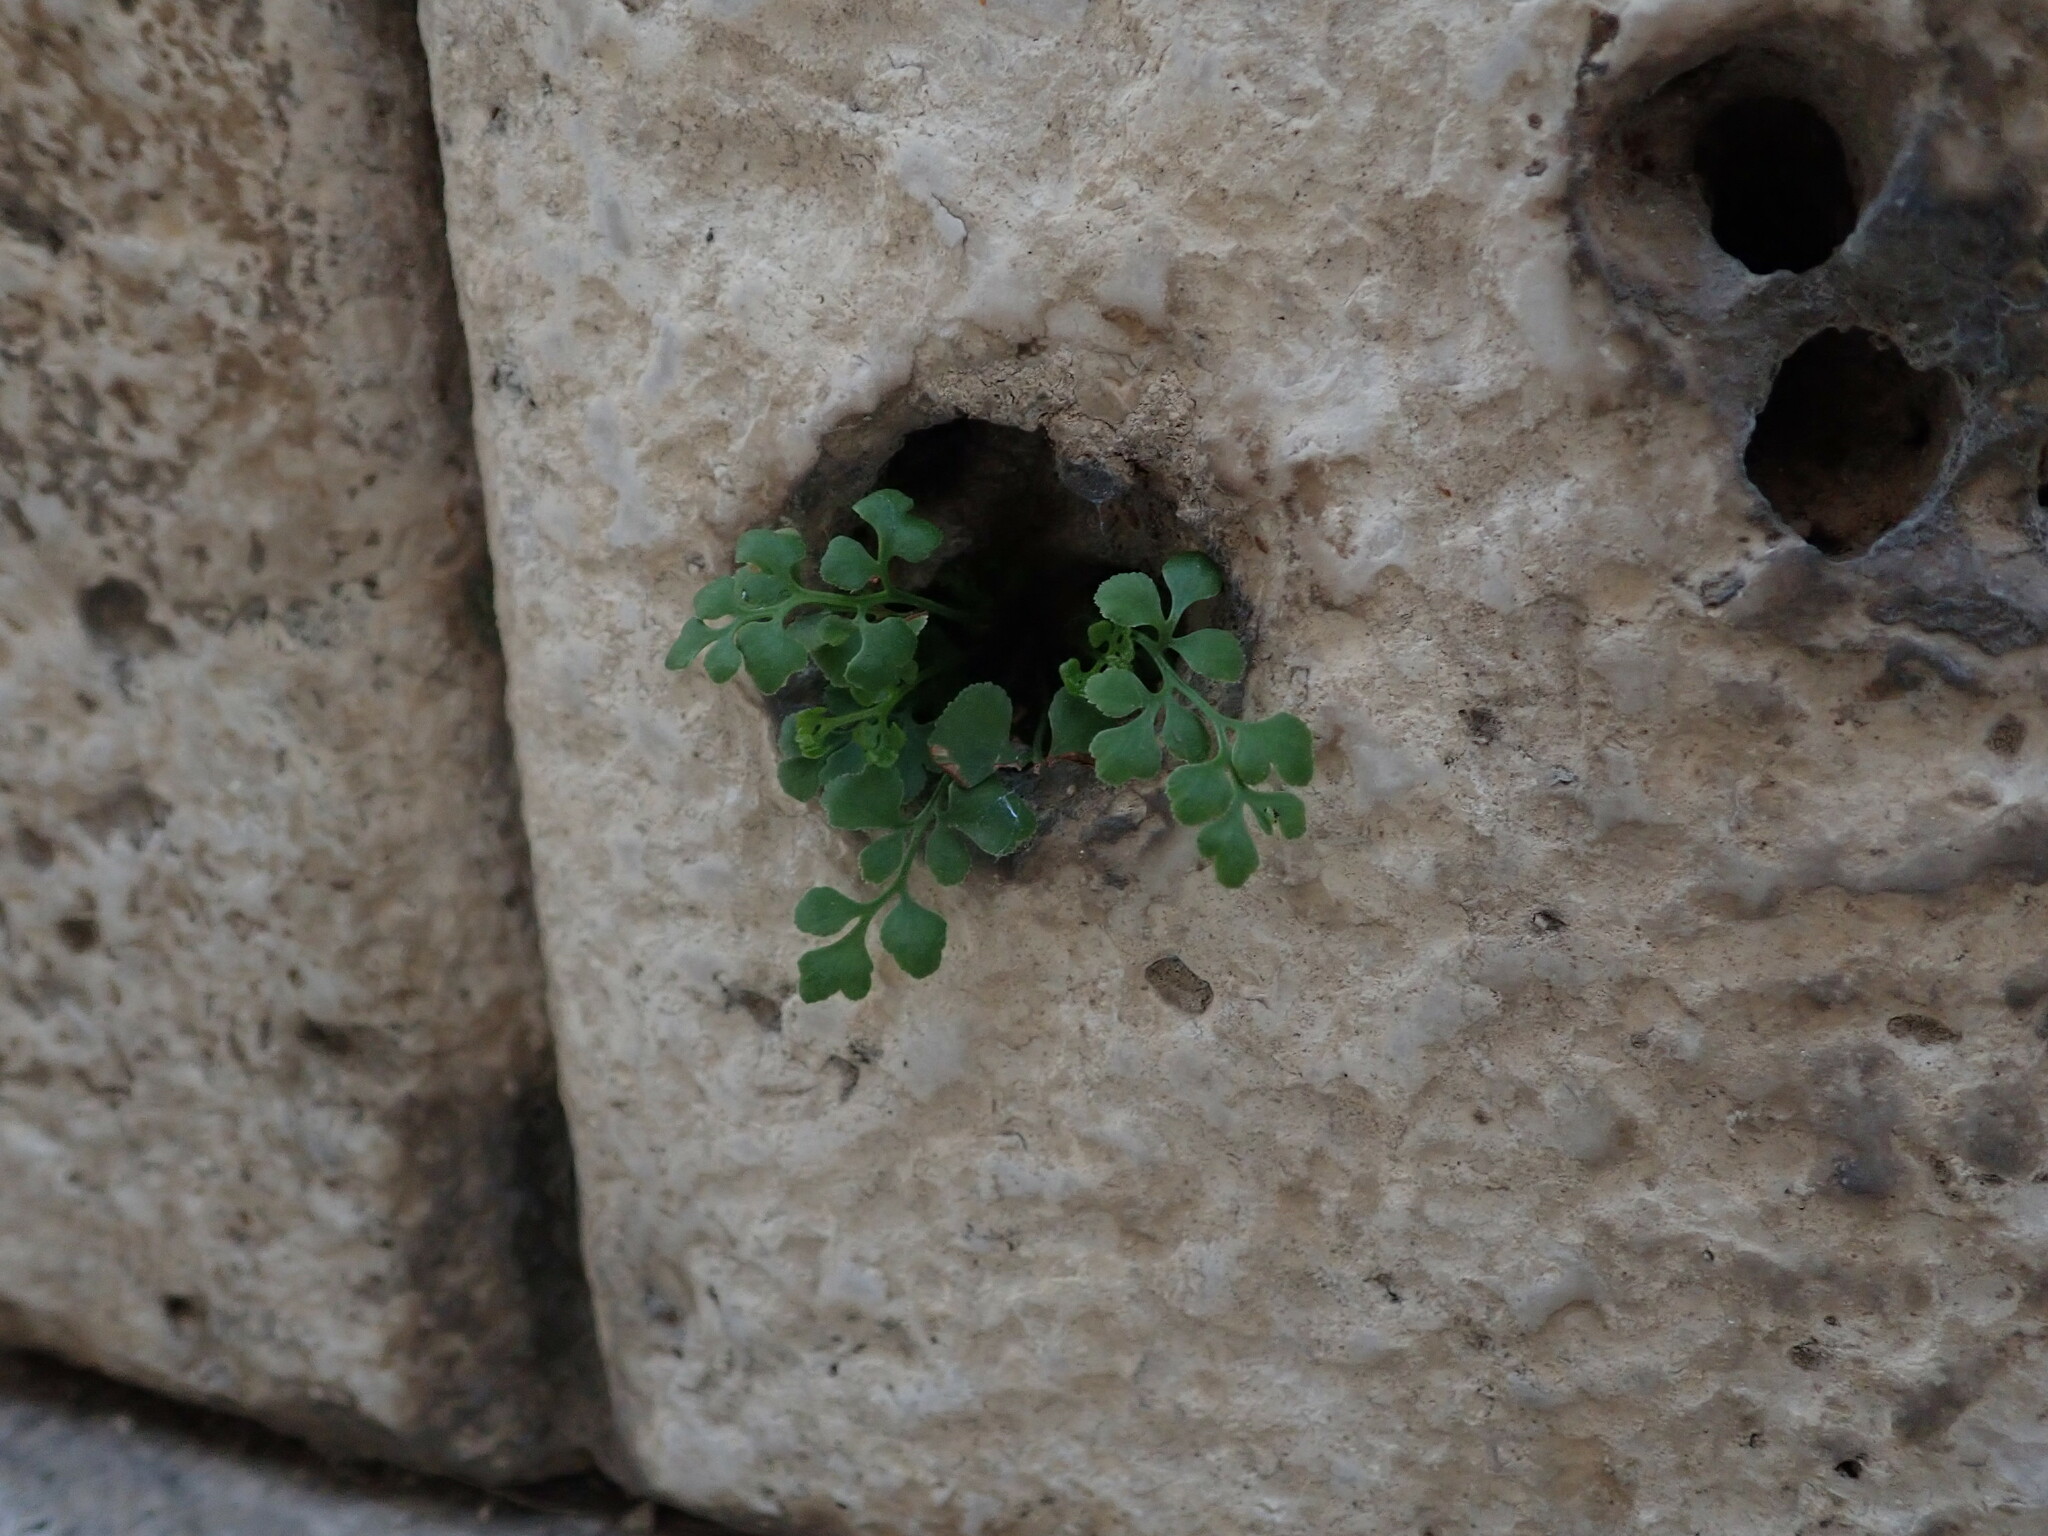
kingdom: Plantae
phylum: Tracheophyta
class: Polypodiopsida
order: Polypodiales
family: Aspleniaceae
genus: Asplenium
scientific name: Asplenium ruta-muraria
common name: Wall-rue
